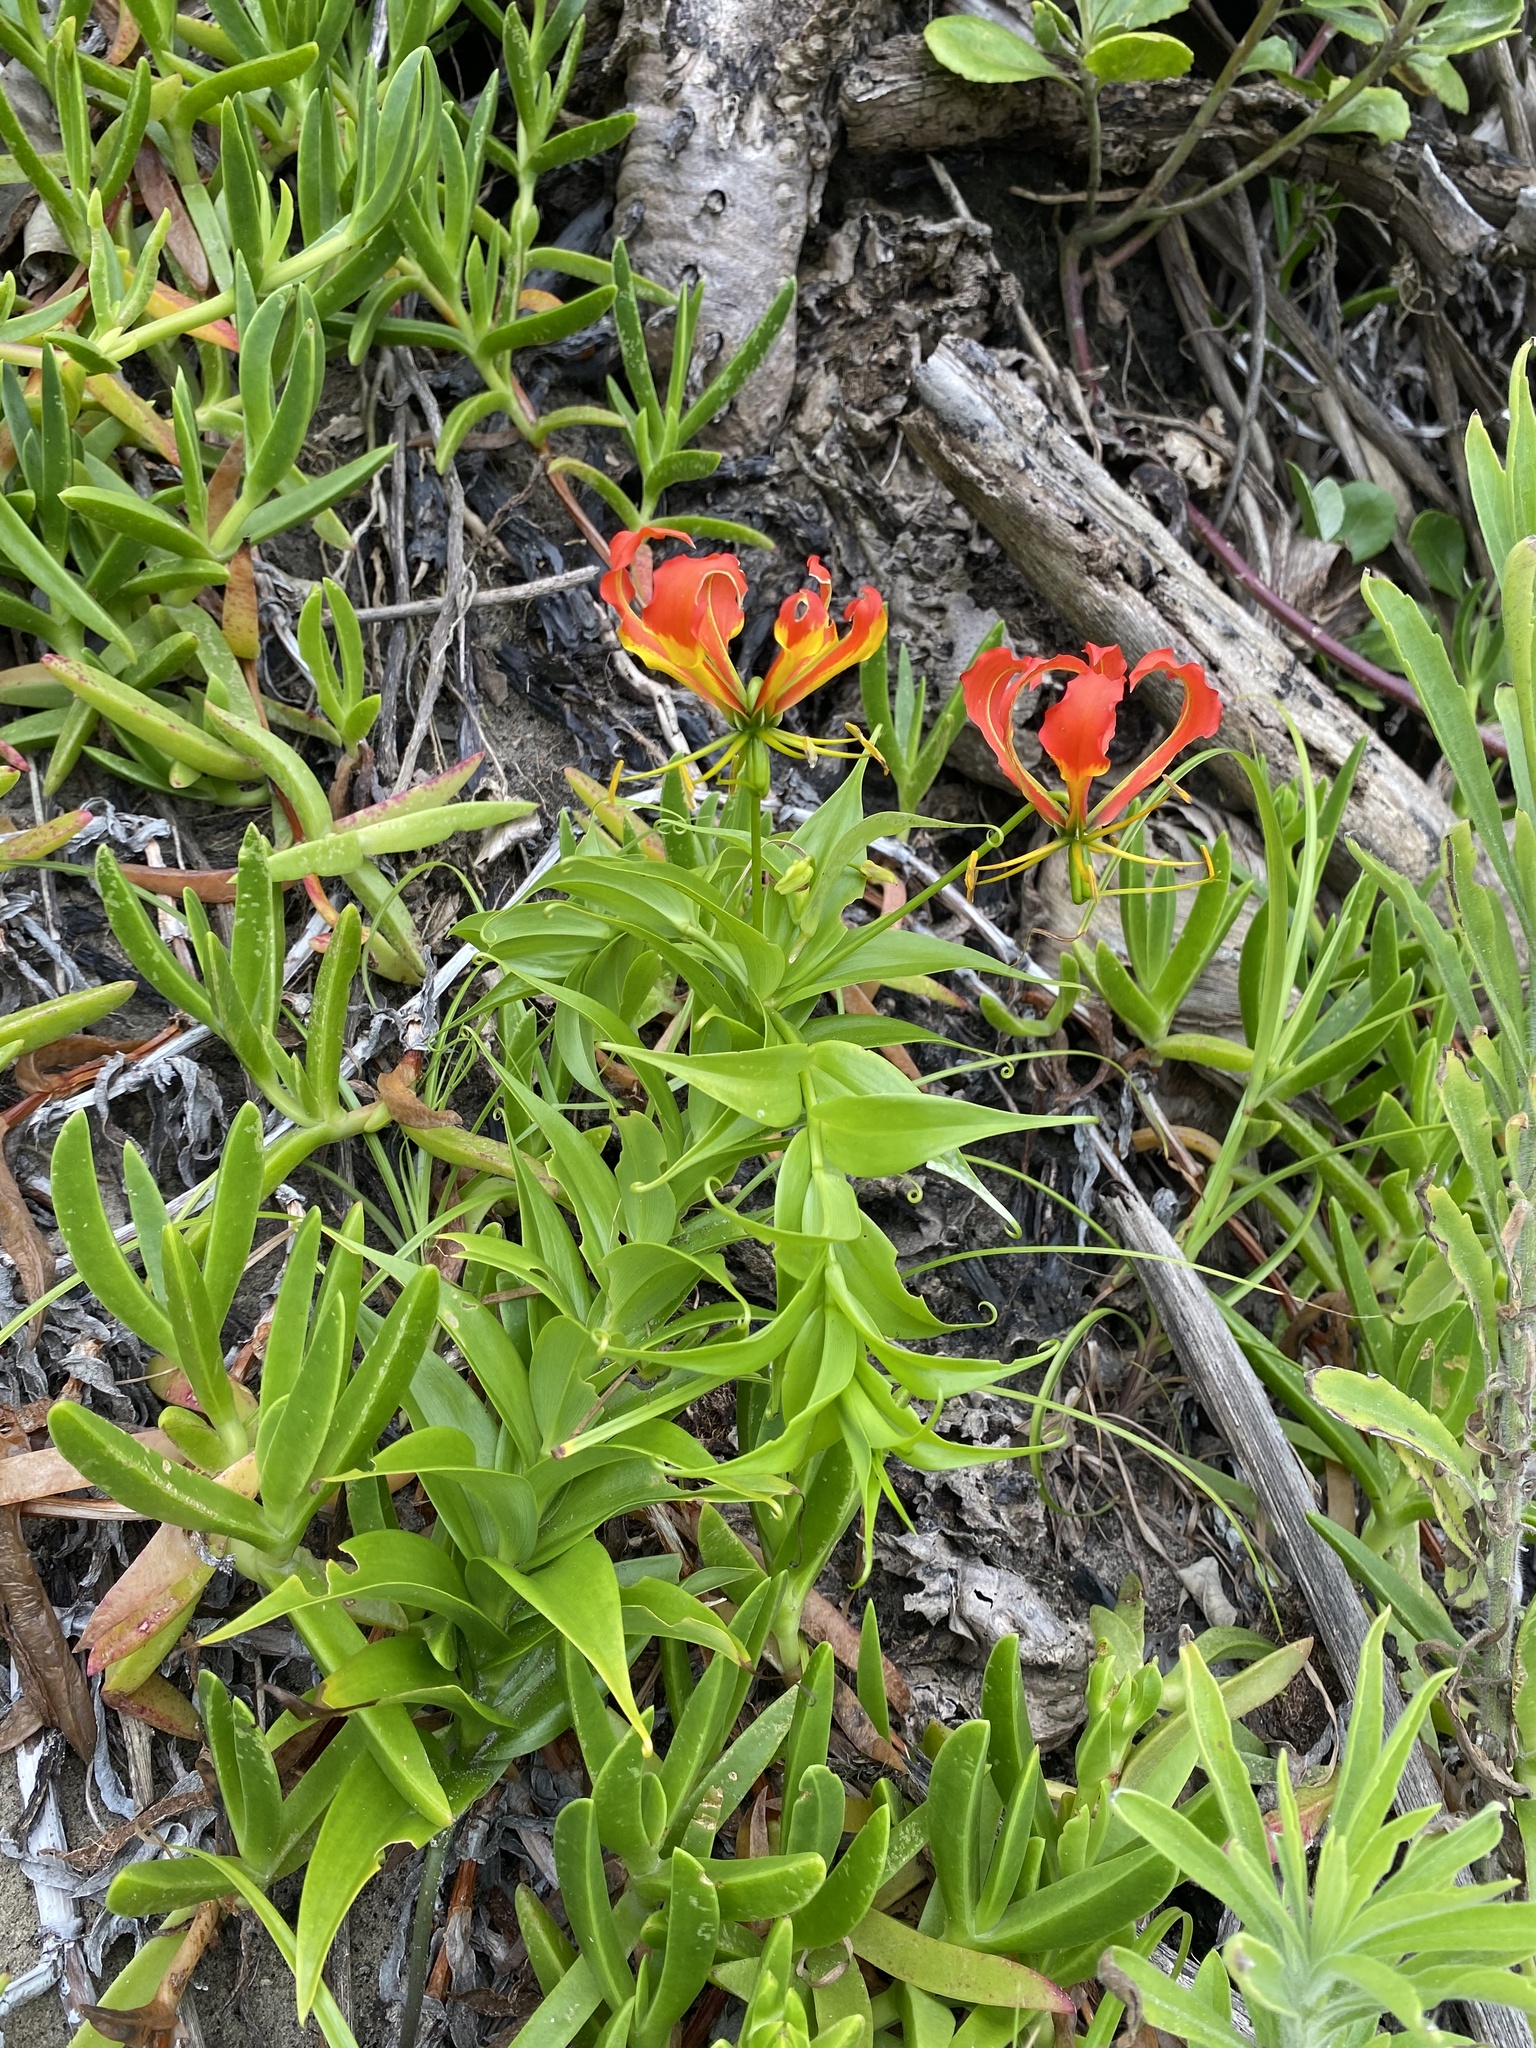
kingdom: Plantae
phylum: Tracheophyta
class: Liliopsida
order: Liliales
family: Colchicaceae
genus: Gloriosa
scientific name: Gloriosa superba
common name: Flame lily
